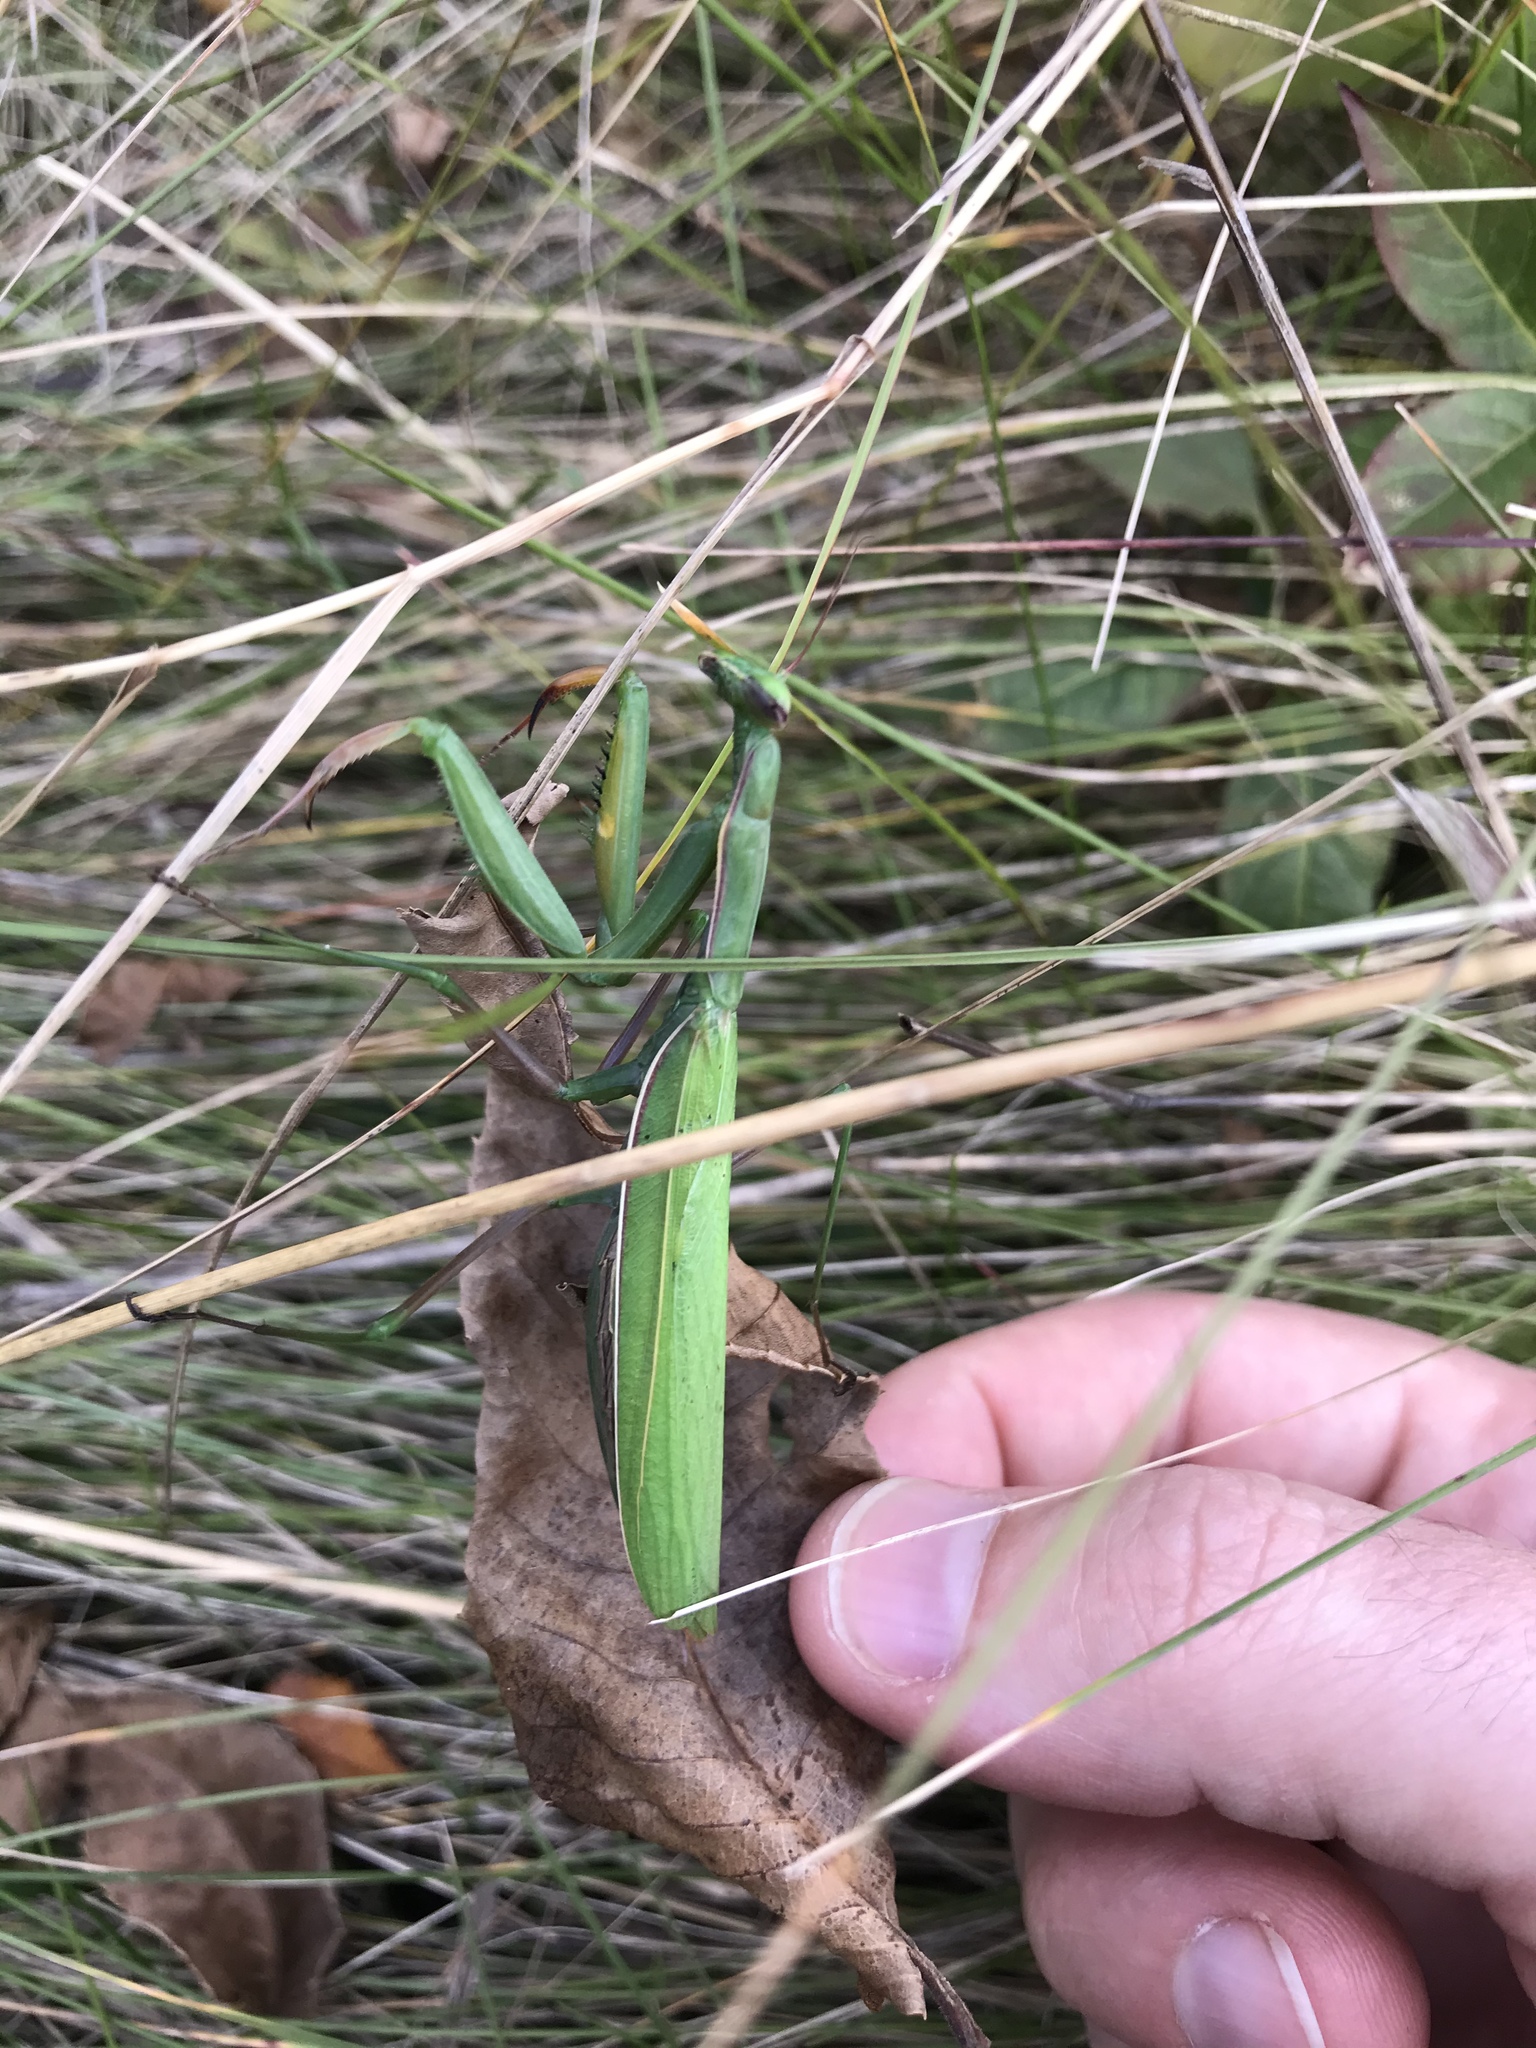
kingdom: Animalia
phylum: Arthropoda
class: Insecta
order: Mantodea
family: Mantidae
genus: Mantis
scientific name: Mantis religiosa
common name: Praying mantis
